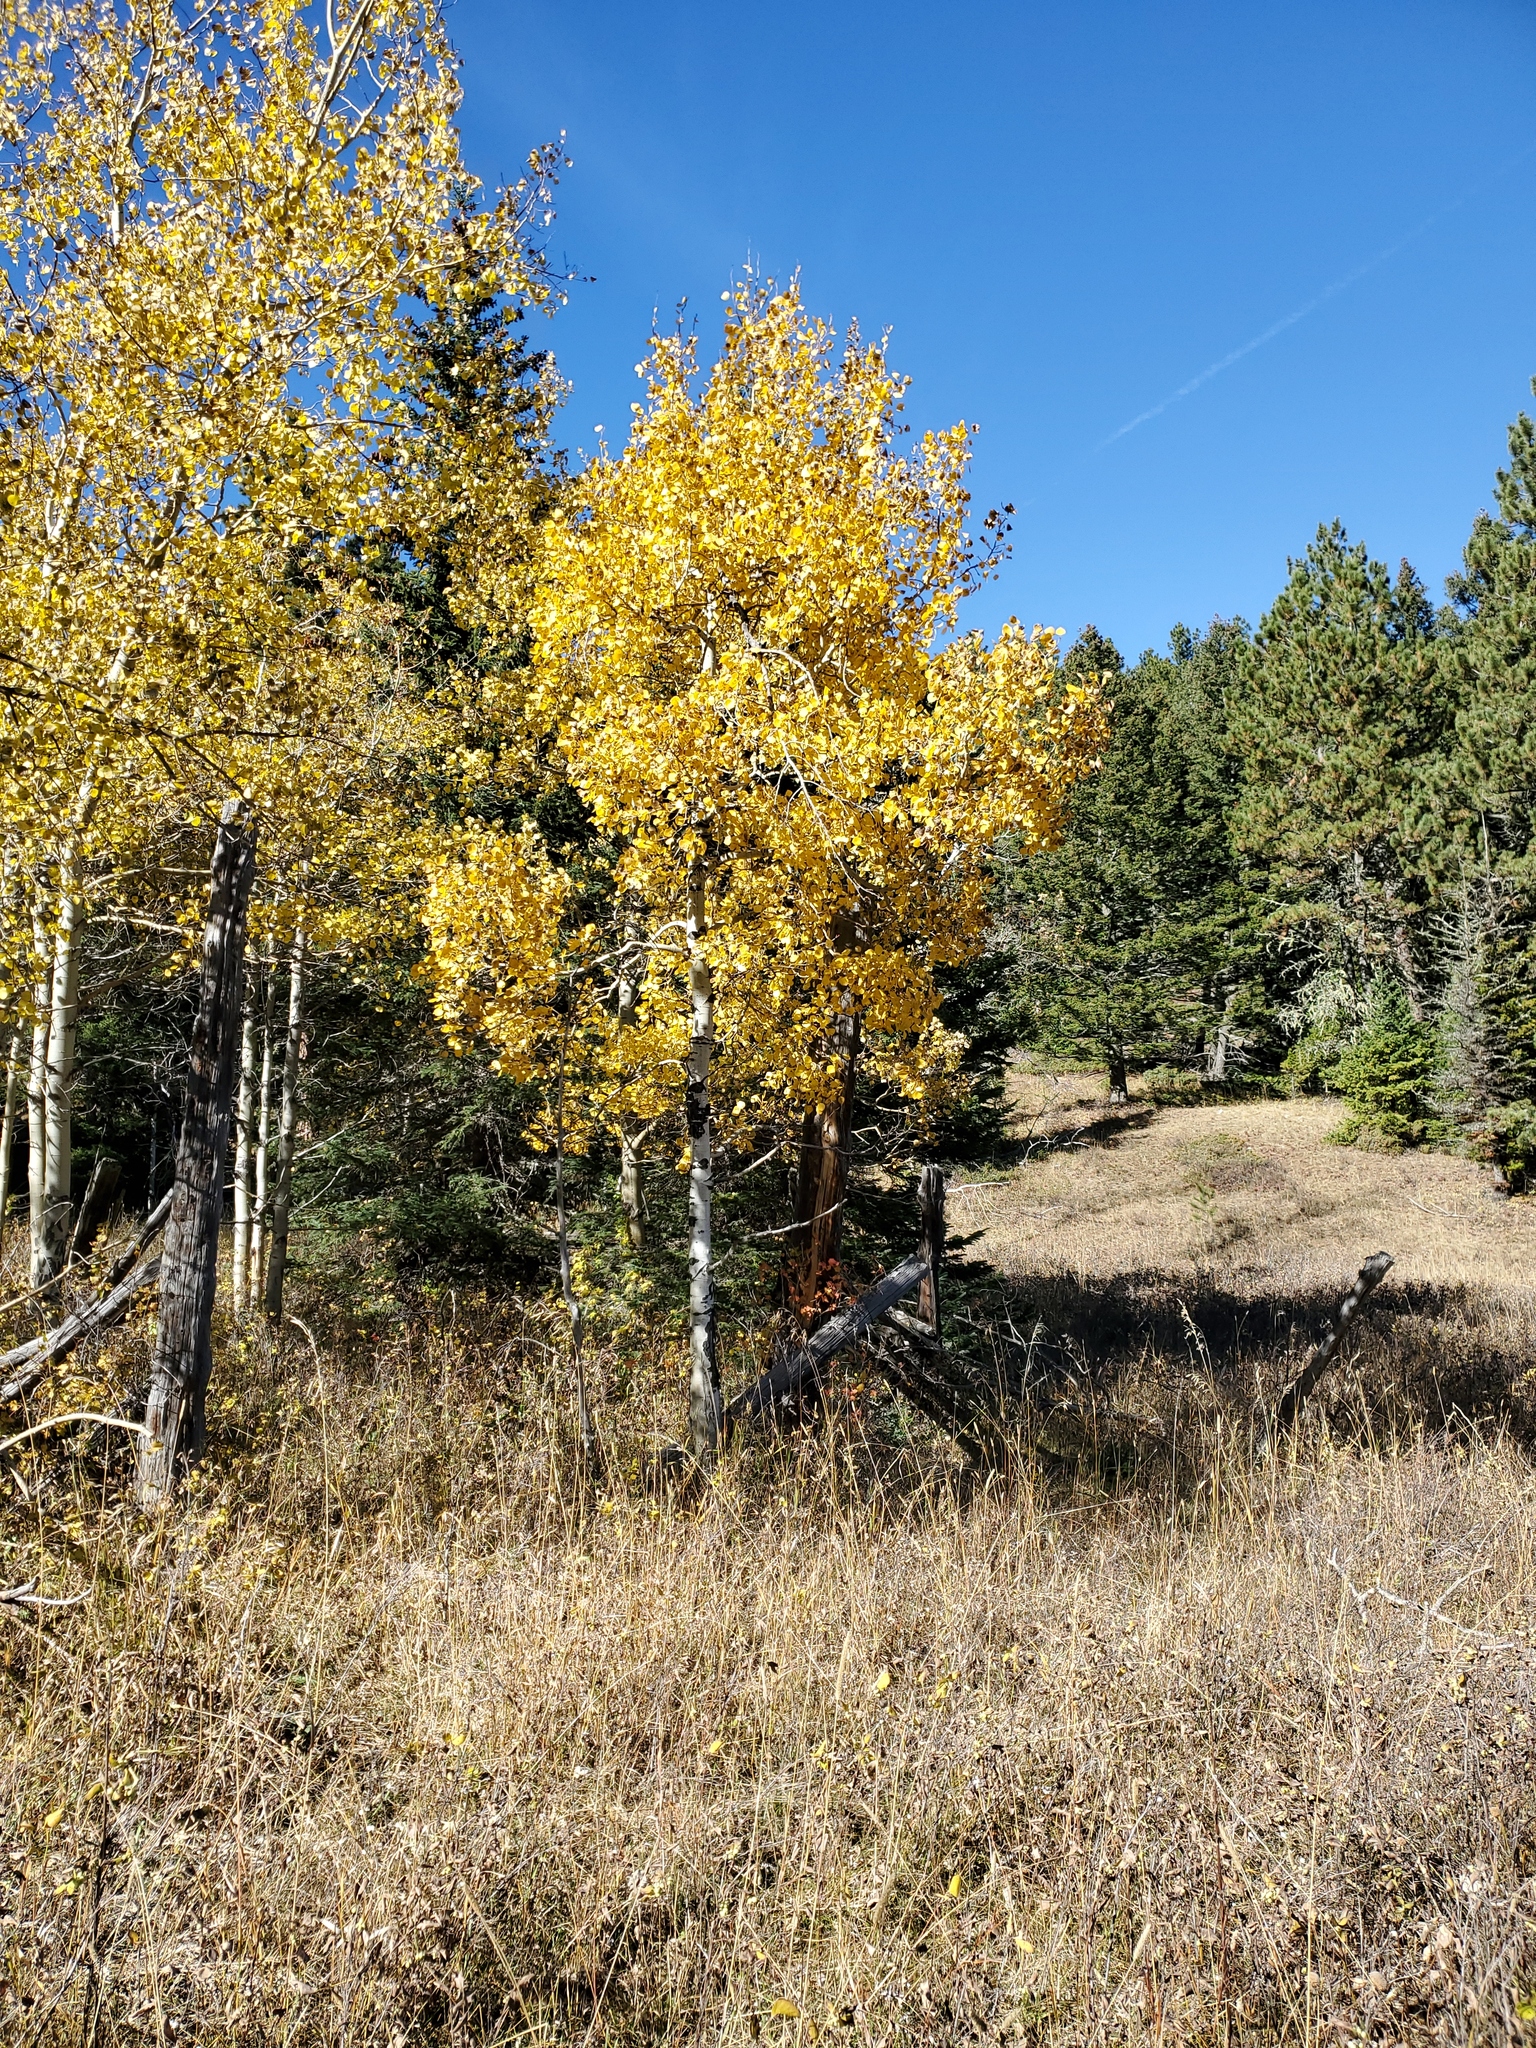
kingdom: Plantae
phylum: Tracheophyta
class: Magnoliopsida
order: Malpighiales
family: Salicaceae
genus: Populus
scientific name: Populus tremuloides
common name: Quaking aspen
